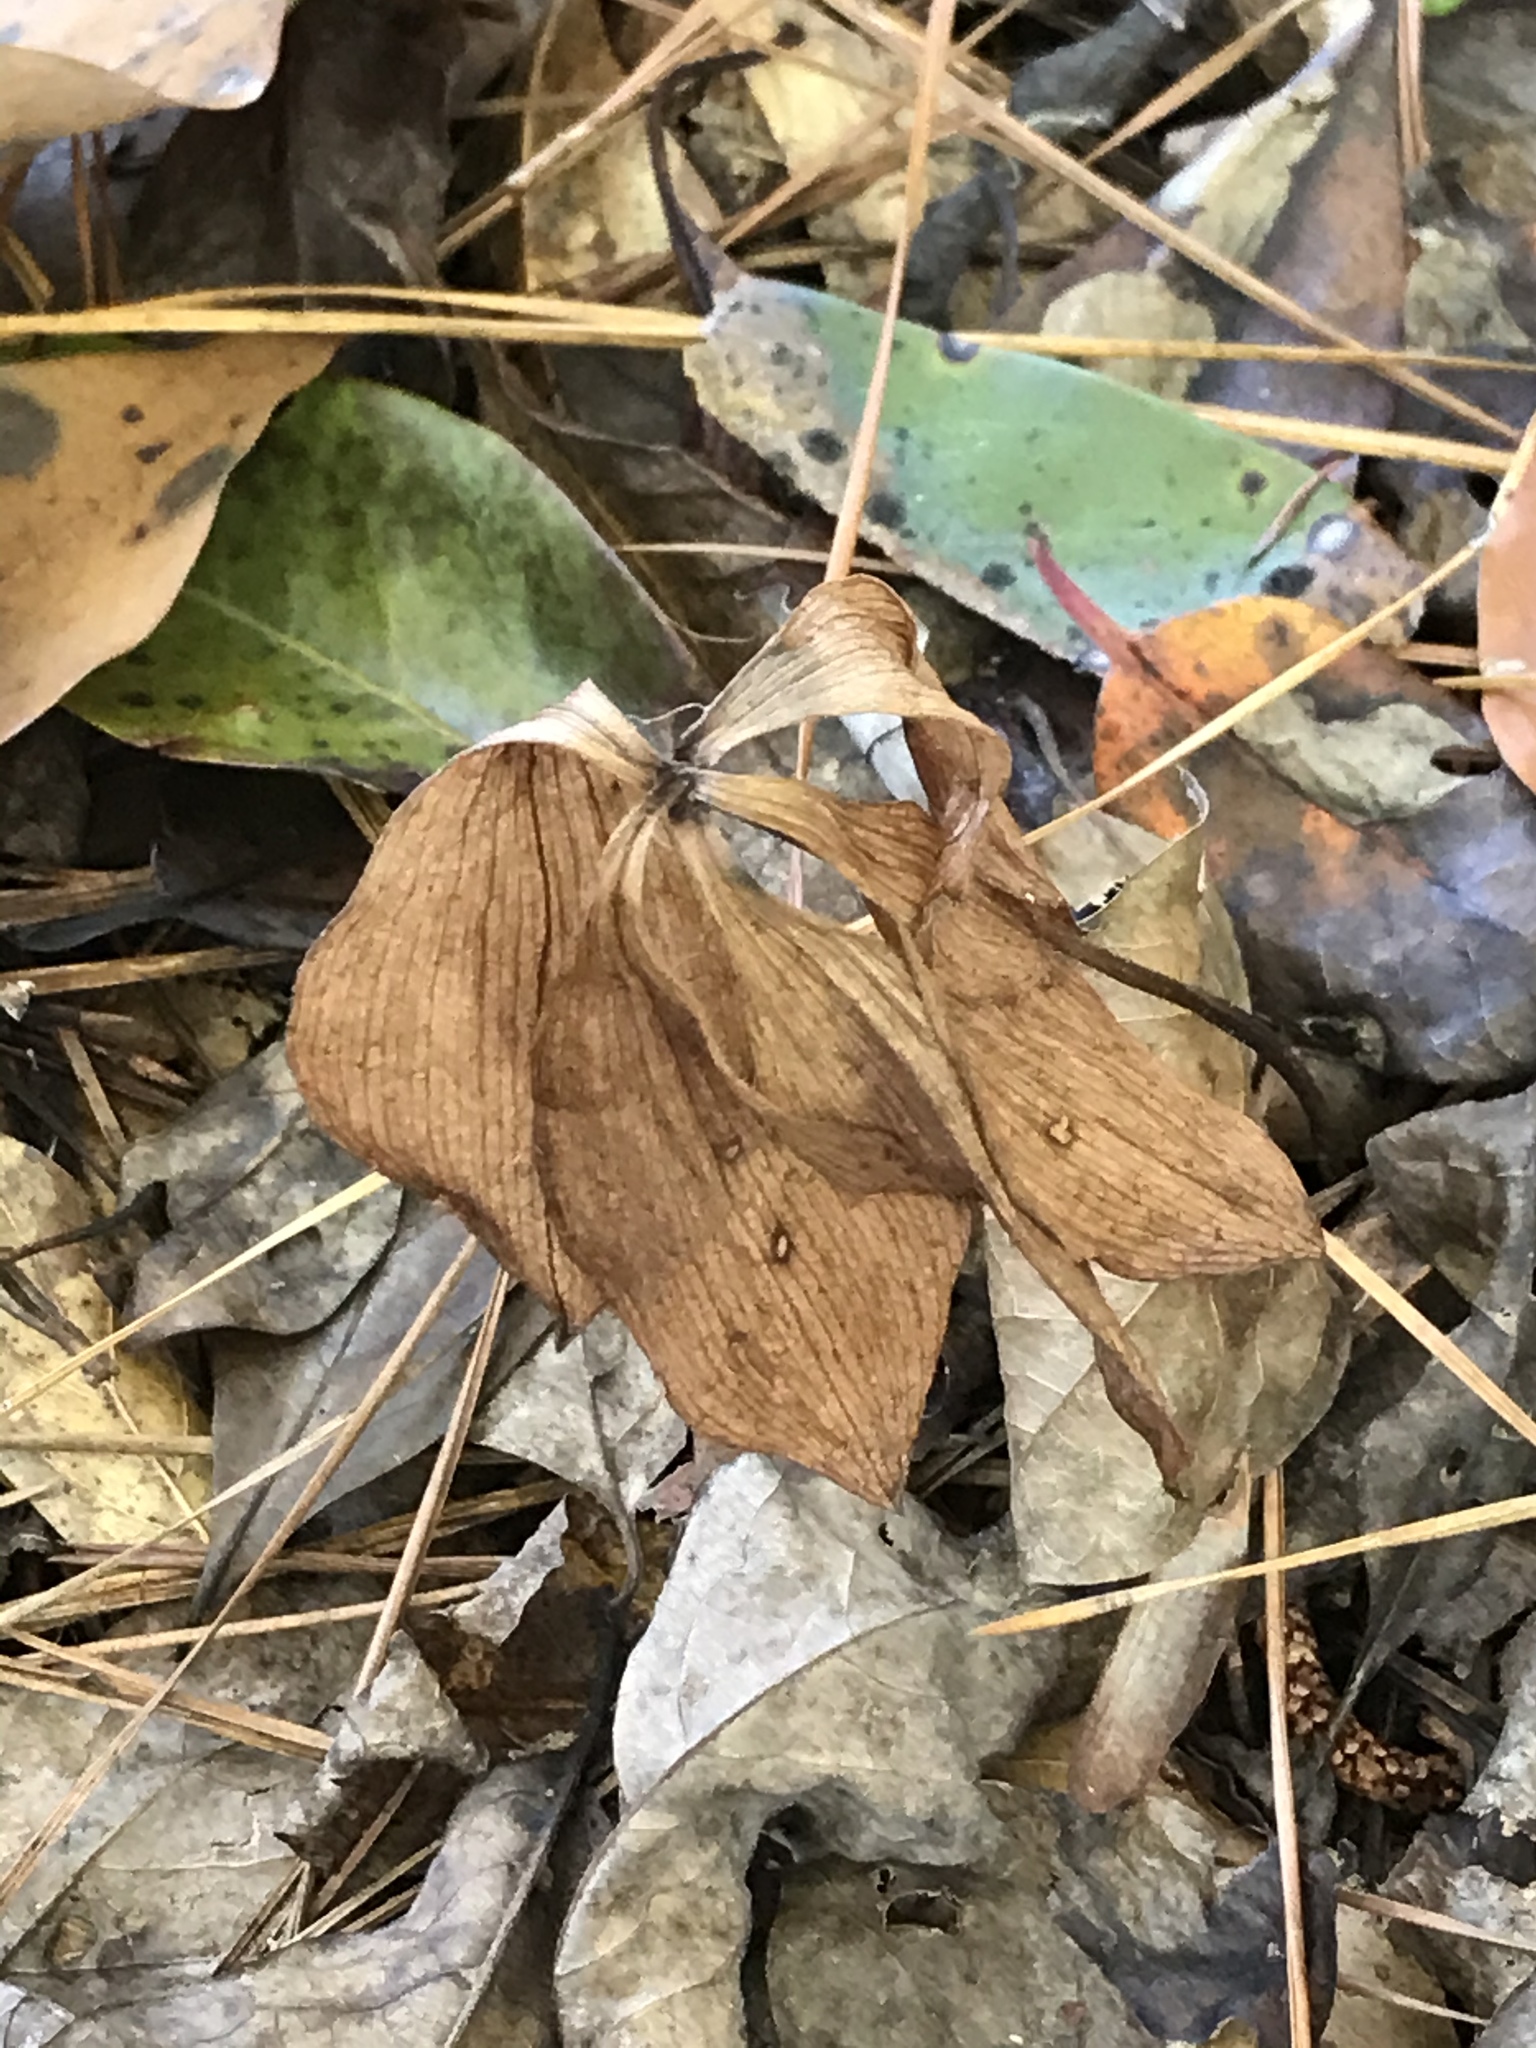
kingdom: Plantae
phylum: Tracheophyta
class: Liliopsida
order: Asparagales
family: Orchidaceae
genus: Isotria
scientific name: Isotria verticillata
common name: Large whorled pogonia
